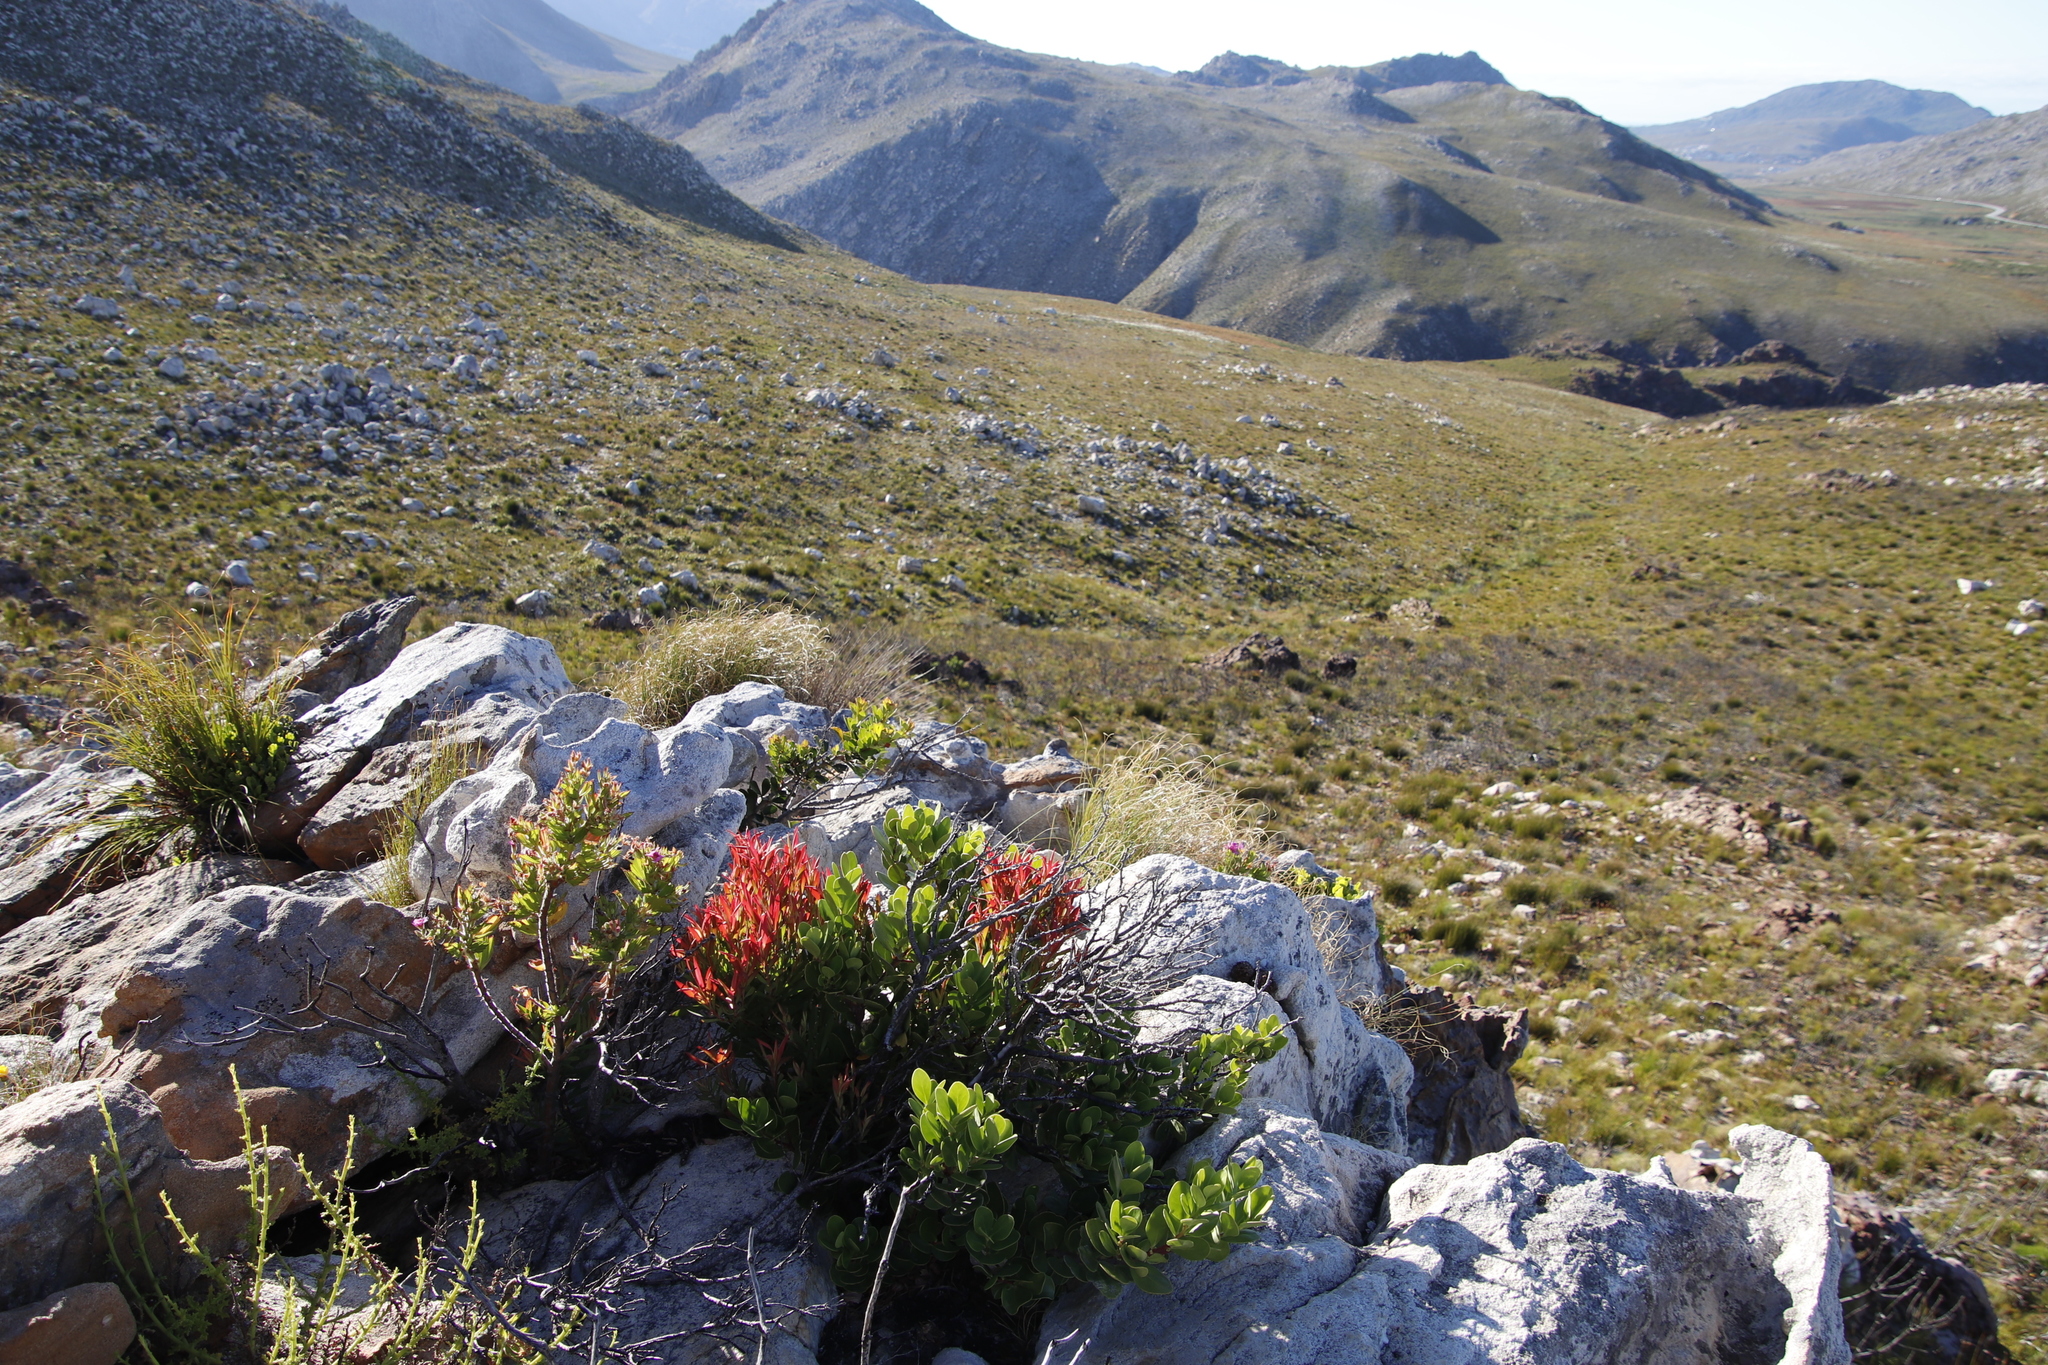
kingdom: Plantae
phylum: Tracheophyta
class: Magnoliopsida
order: Celastrales
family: Celastraceae
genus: Pterocelastrus
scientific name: Pterocelastrus tricuspidatus
